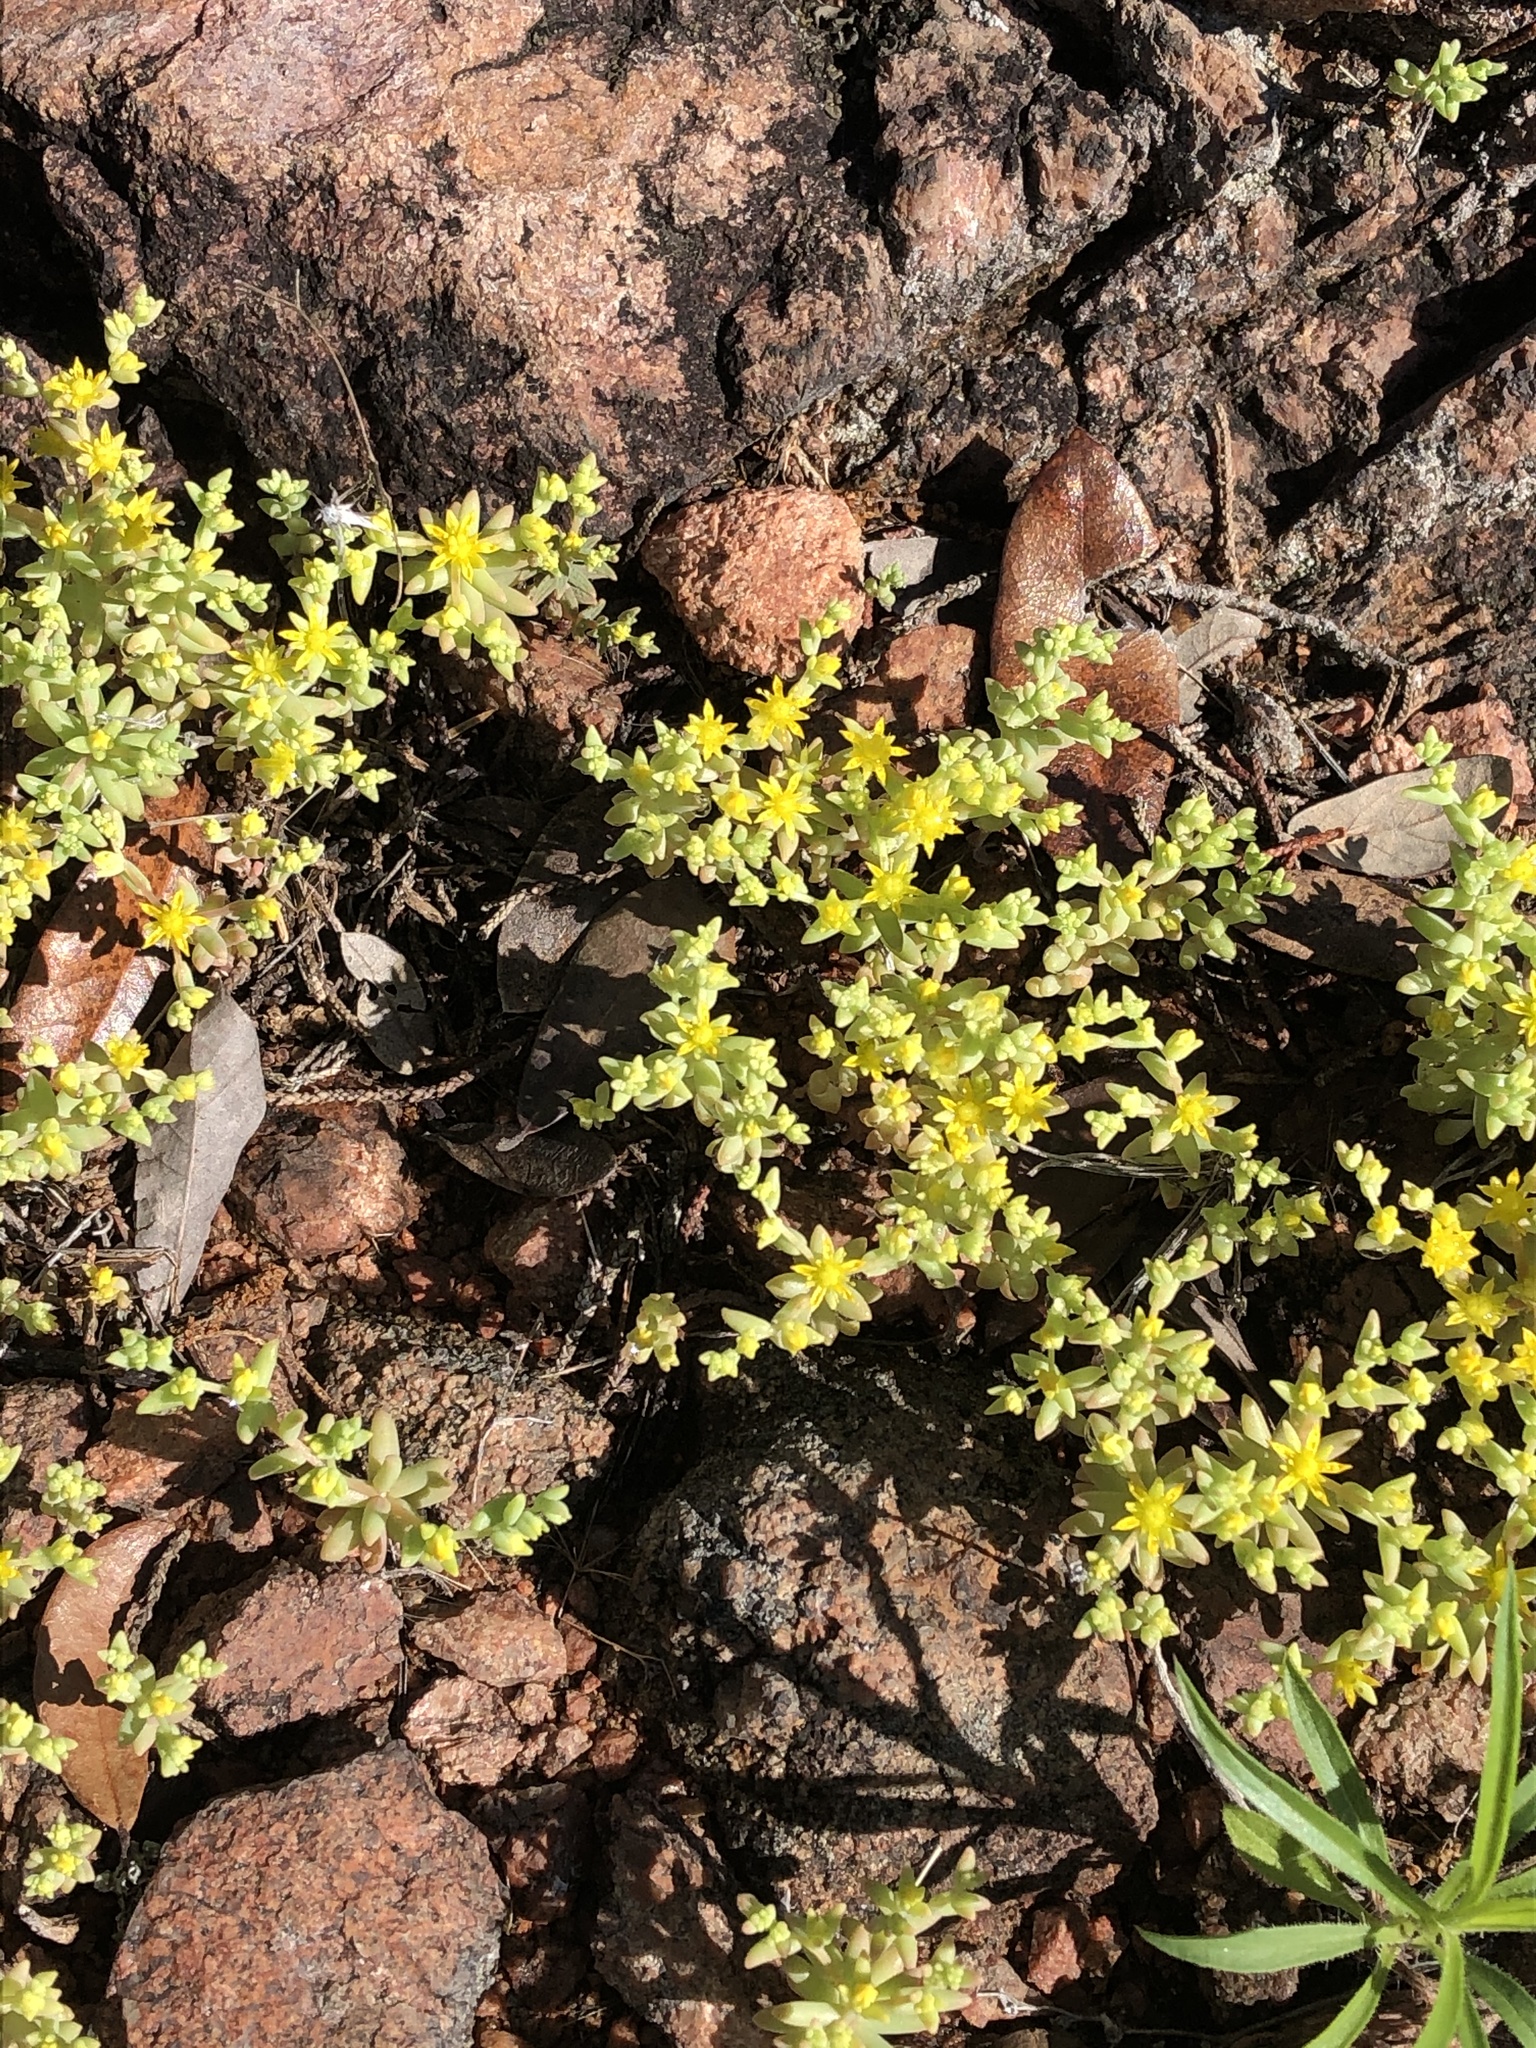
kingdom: Plantae
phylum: Tracheophyta
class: Magnoliopsida
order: Saxifragales
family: Crassulaceae
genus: Sedum
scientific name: Sedum nuttallii
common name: Yellow stonecrop
